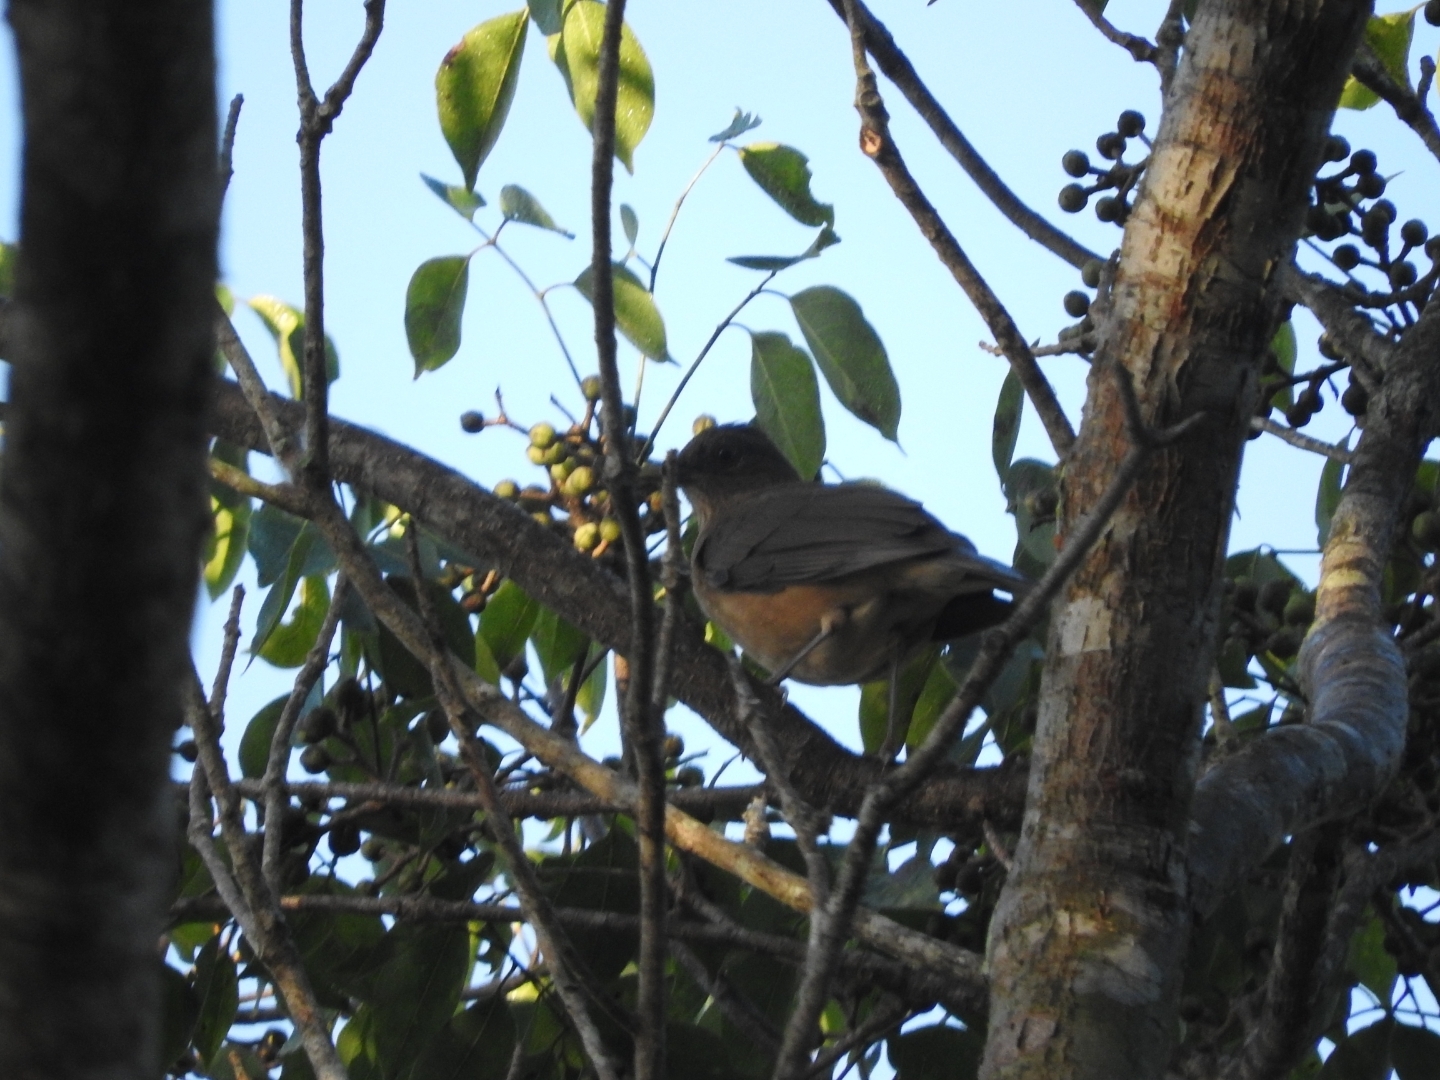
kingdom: Animalia
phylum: Chordata
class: Aves
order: Passeriformes
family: Turdidae
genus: Turdus
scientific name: Turdus grayi
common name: Clay-colored thrush
